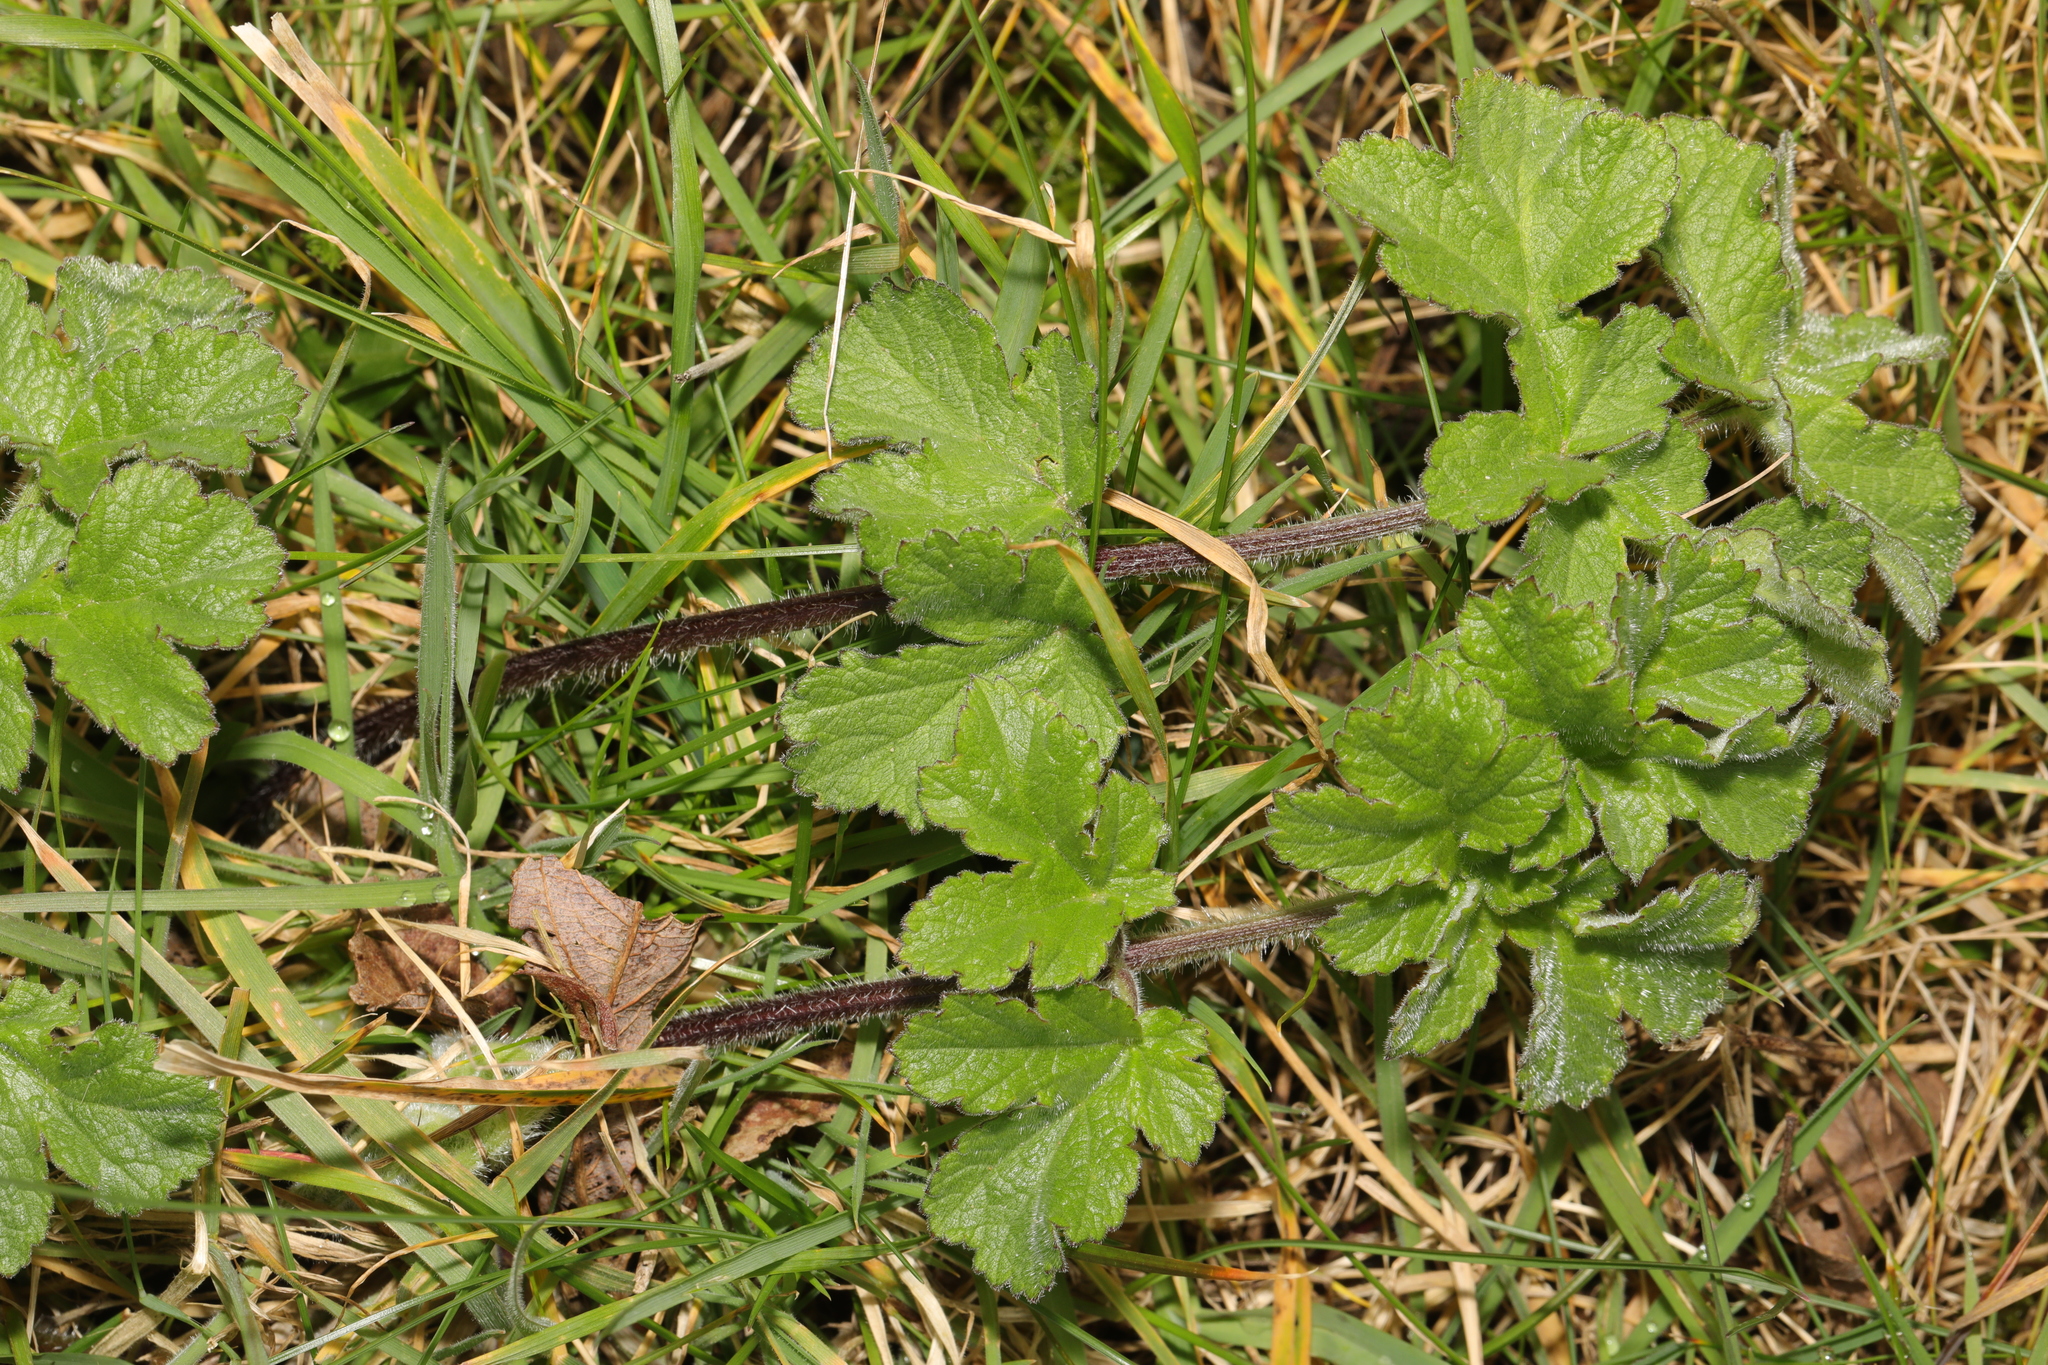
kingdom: Plantae
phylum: Tracheophyta
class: Magnoliopsida
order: Apiales
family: Apiaceae
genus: Heracleum
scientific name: Heracleum sphondylium
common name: Hogweed
